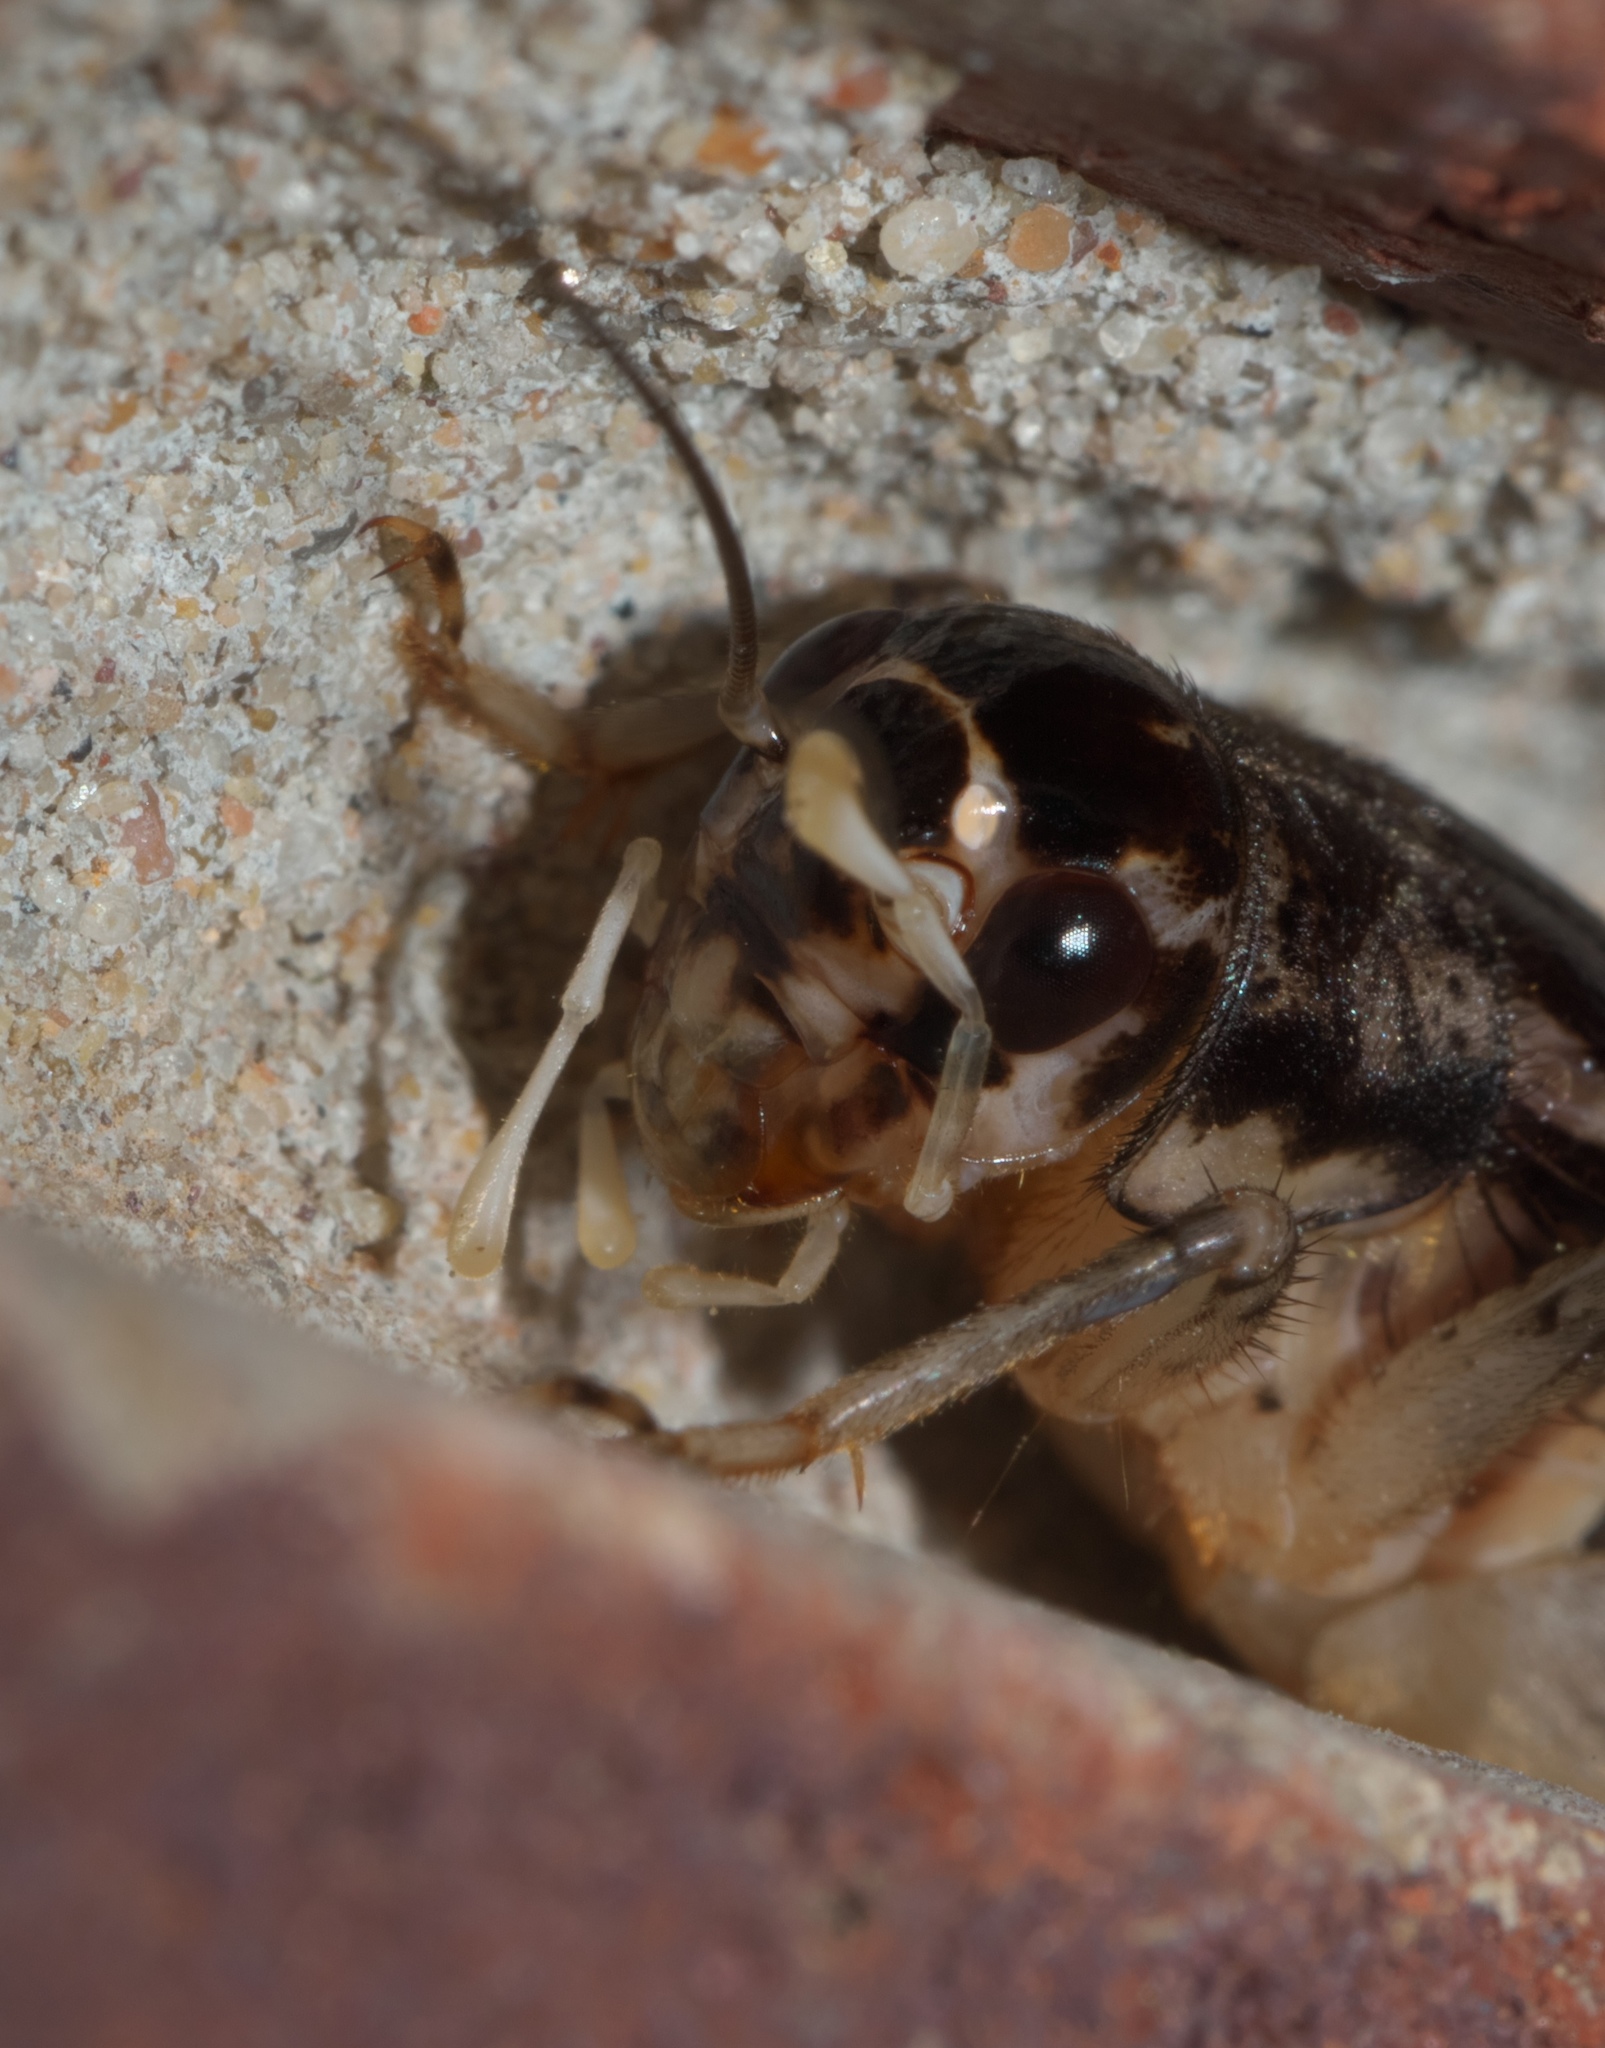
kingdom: Animalia
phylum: Arthropoda
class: Insecta
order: Orthoptera
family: Gryllidae
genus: Velarifictorus
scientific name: Velarifictorus micado
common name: Japanese burrowing cricket
